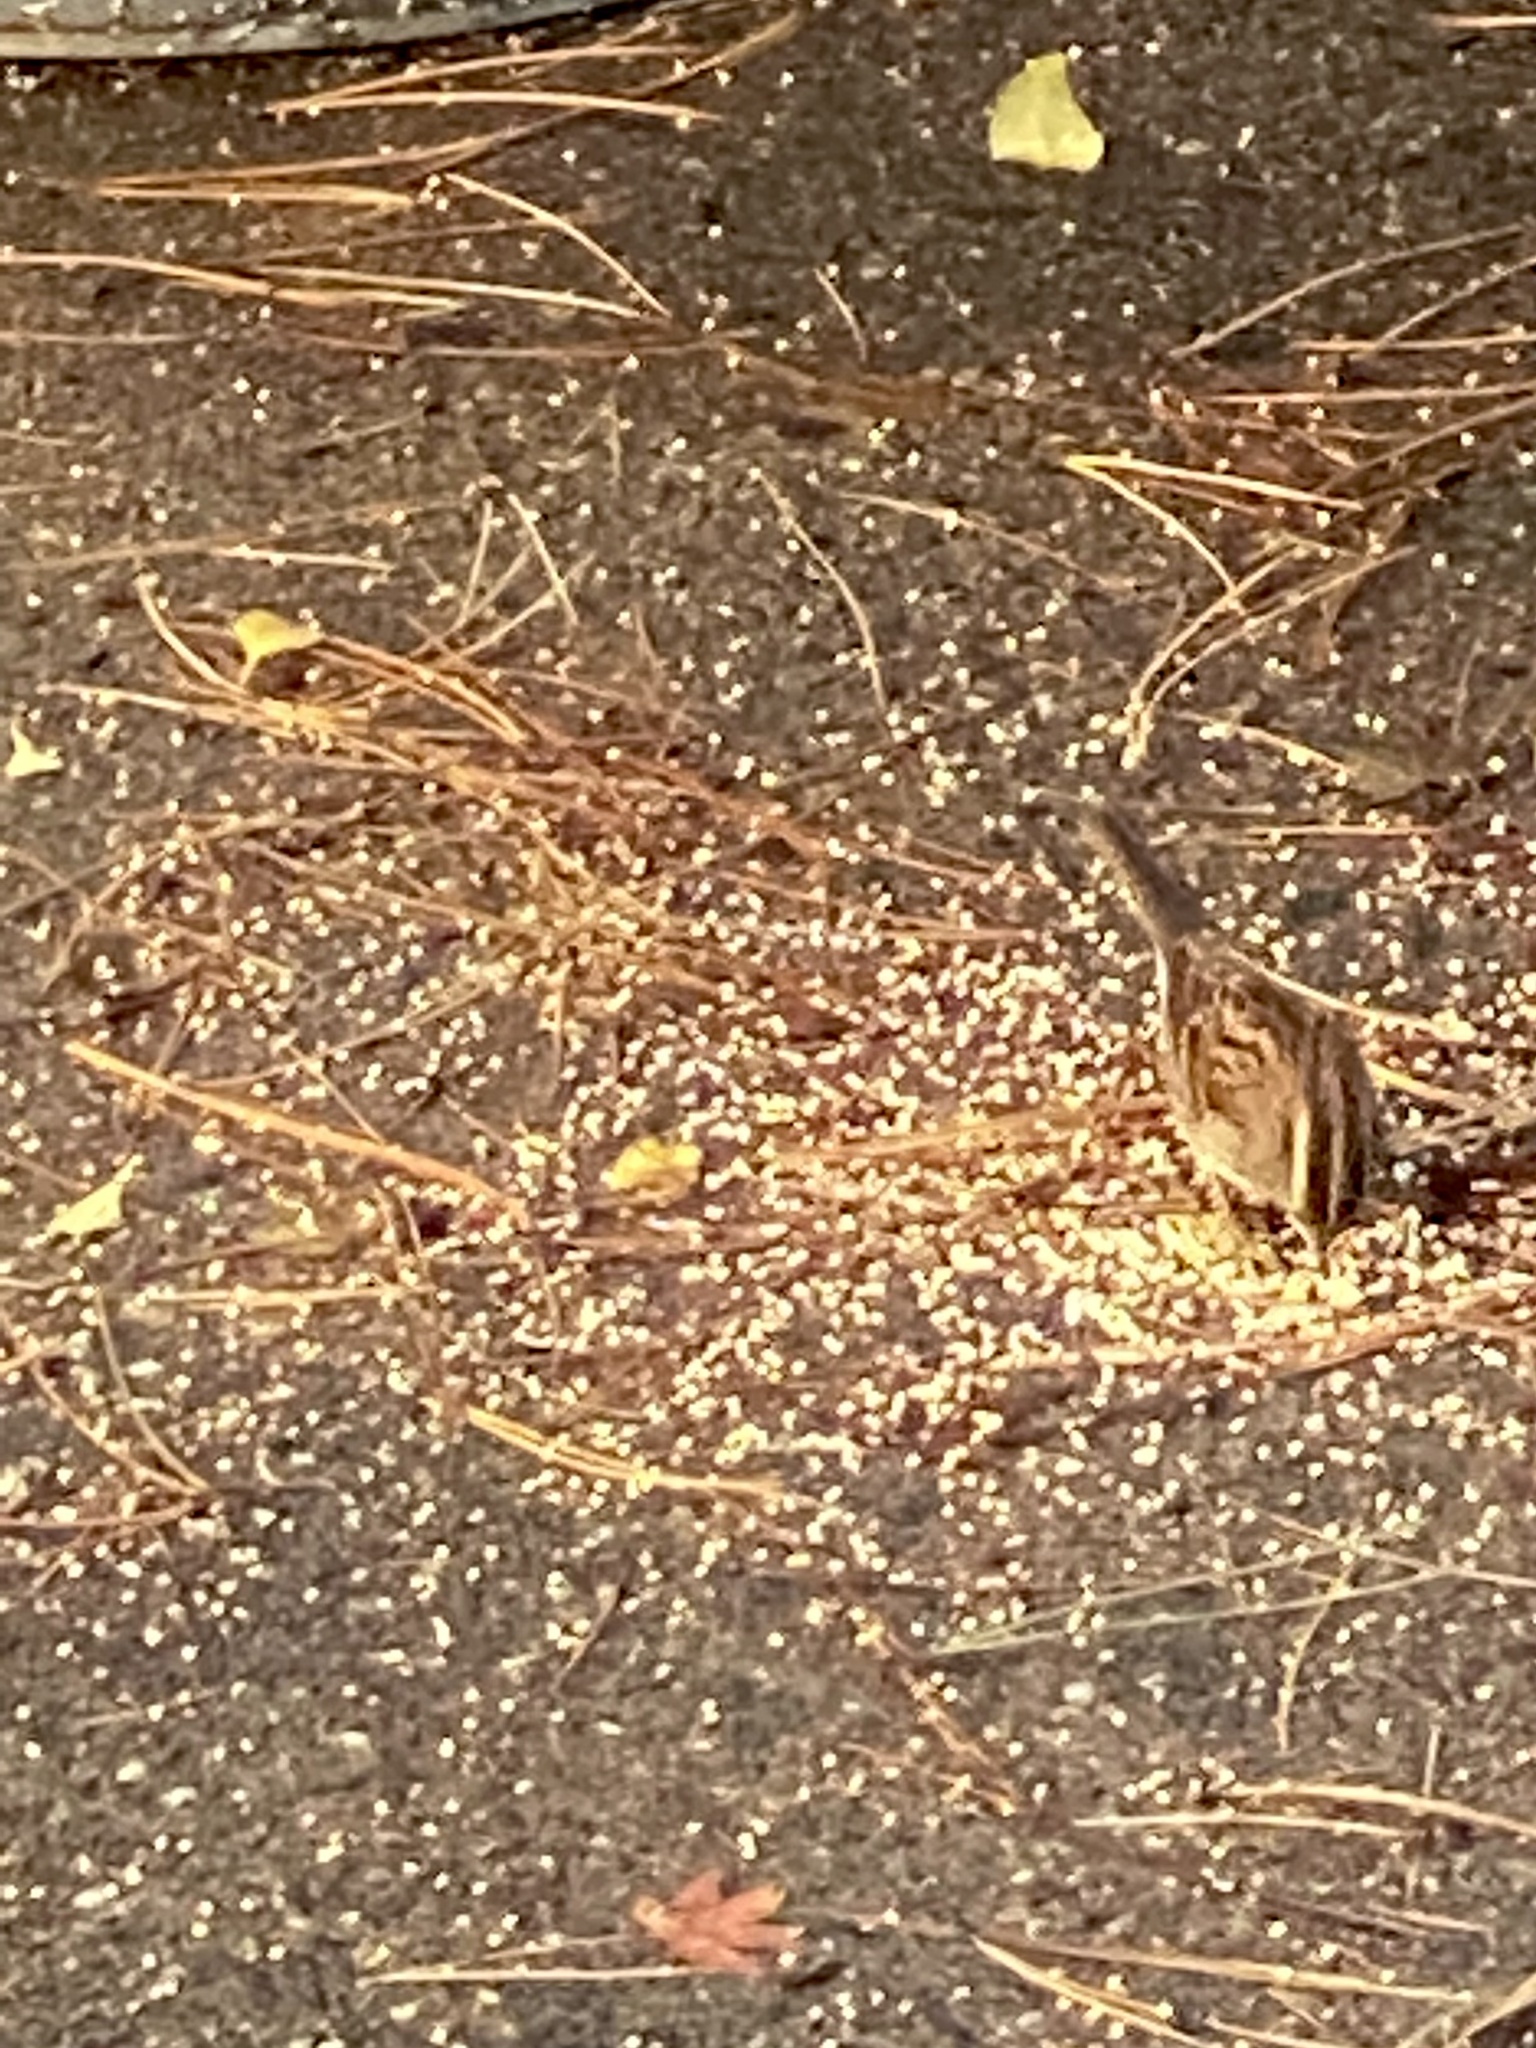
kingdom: Animalia
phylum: Chordata
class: Aves
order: Passeriformes
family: Passerellidae
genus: Zonotrichia
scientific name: Zonotrichia albicollis
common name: White-throated sparrow
